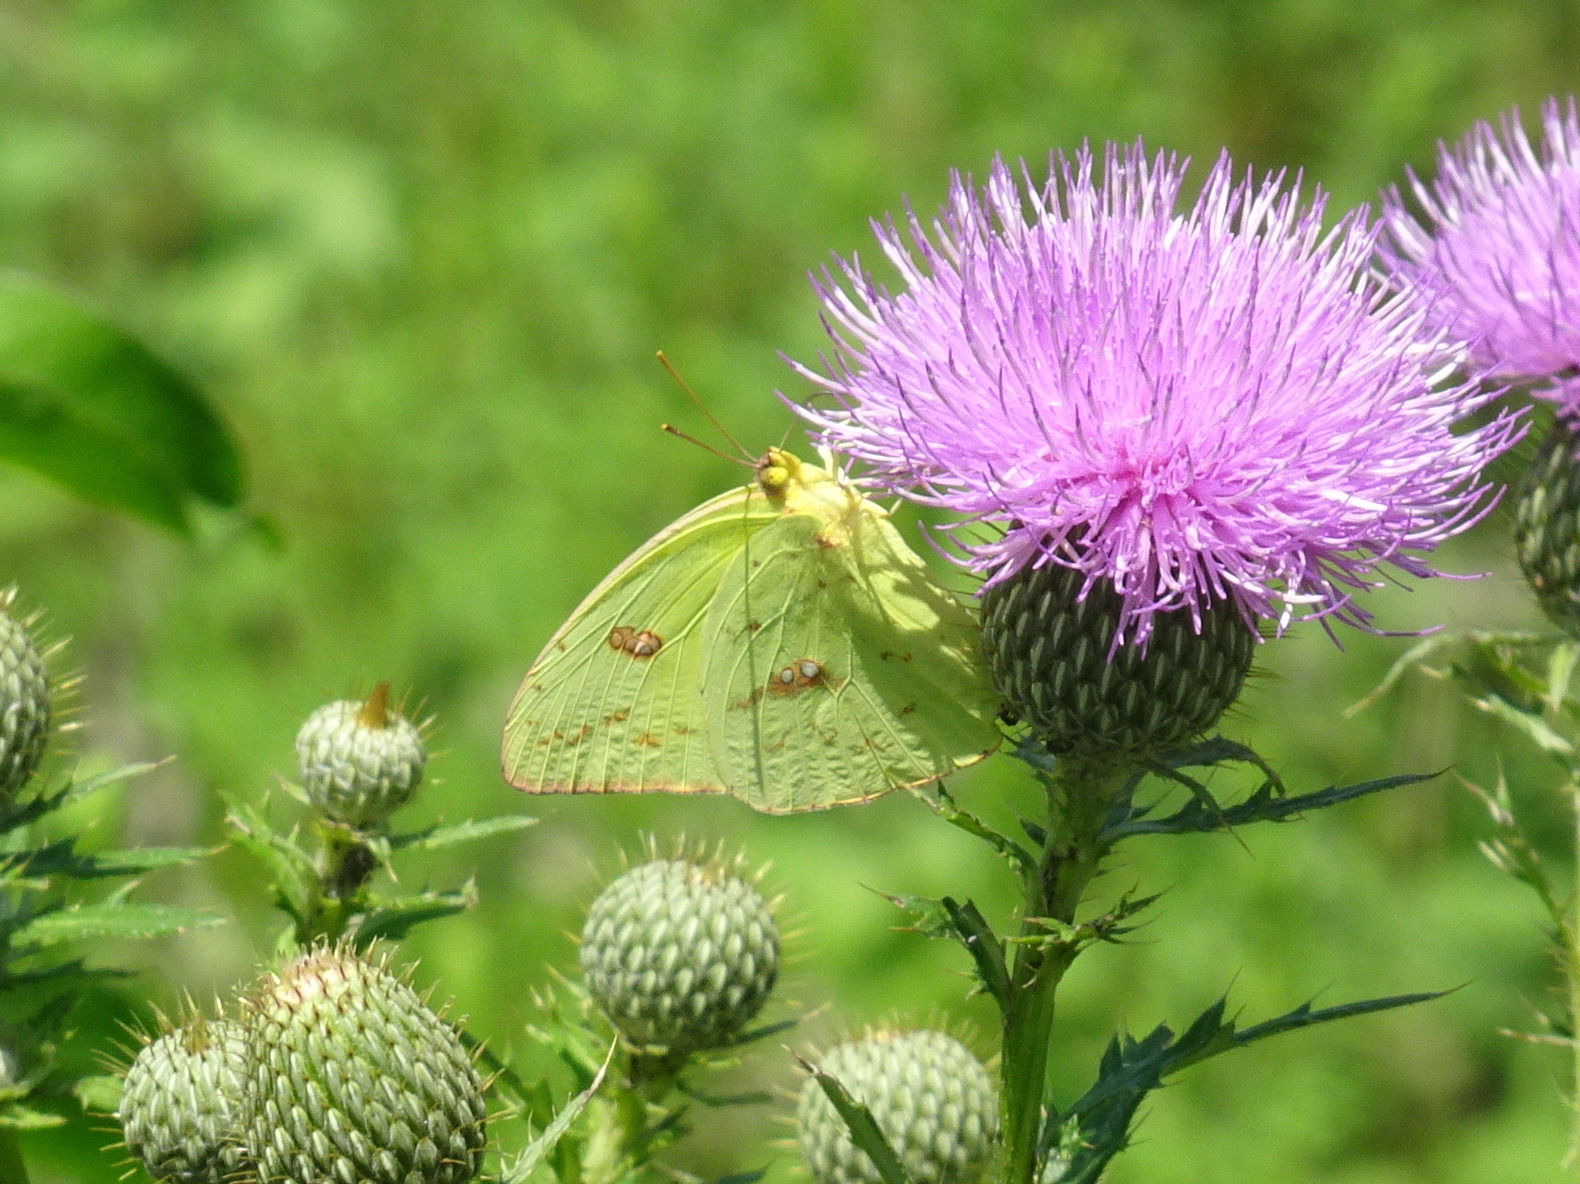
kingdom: Animalia
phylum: Arthropoda
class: Insecta
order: Lepidoptera
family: Pieridae
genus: Phoebis
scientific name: Phoebis sennae
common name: Cloudless sulphur
